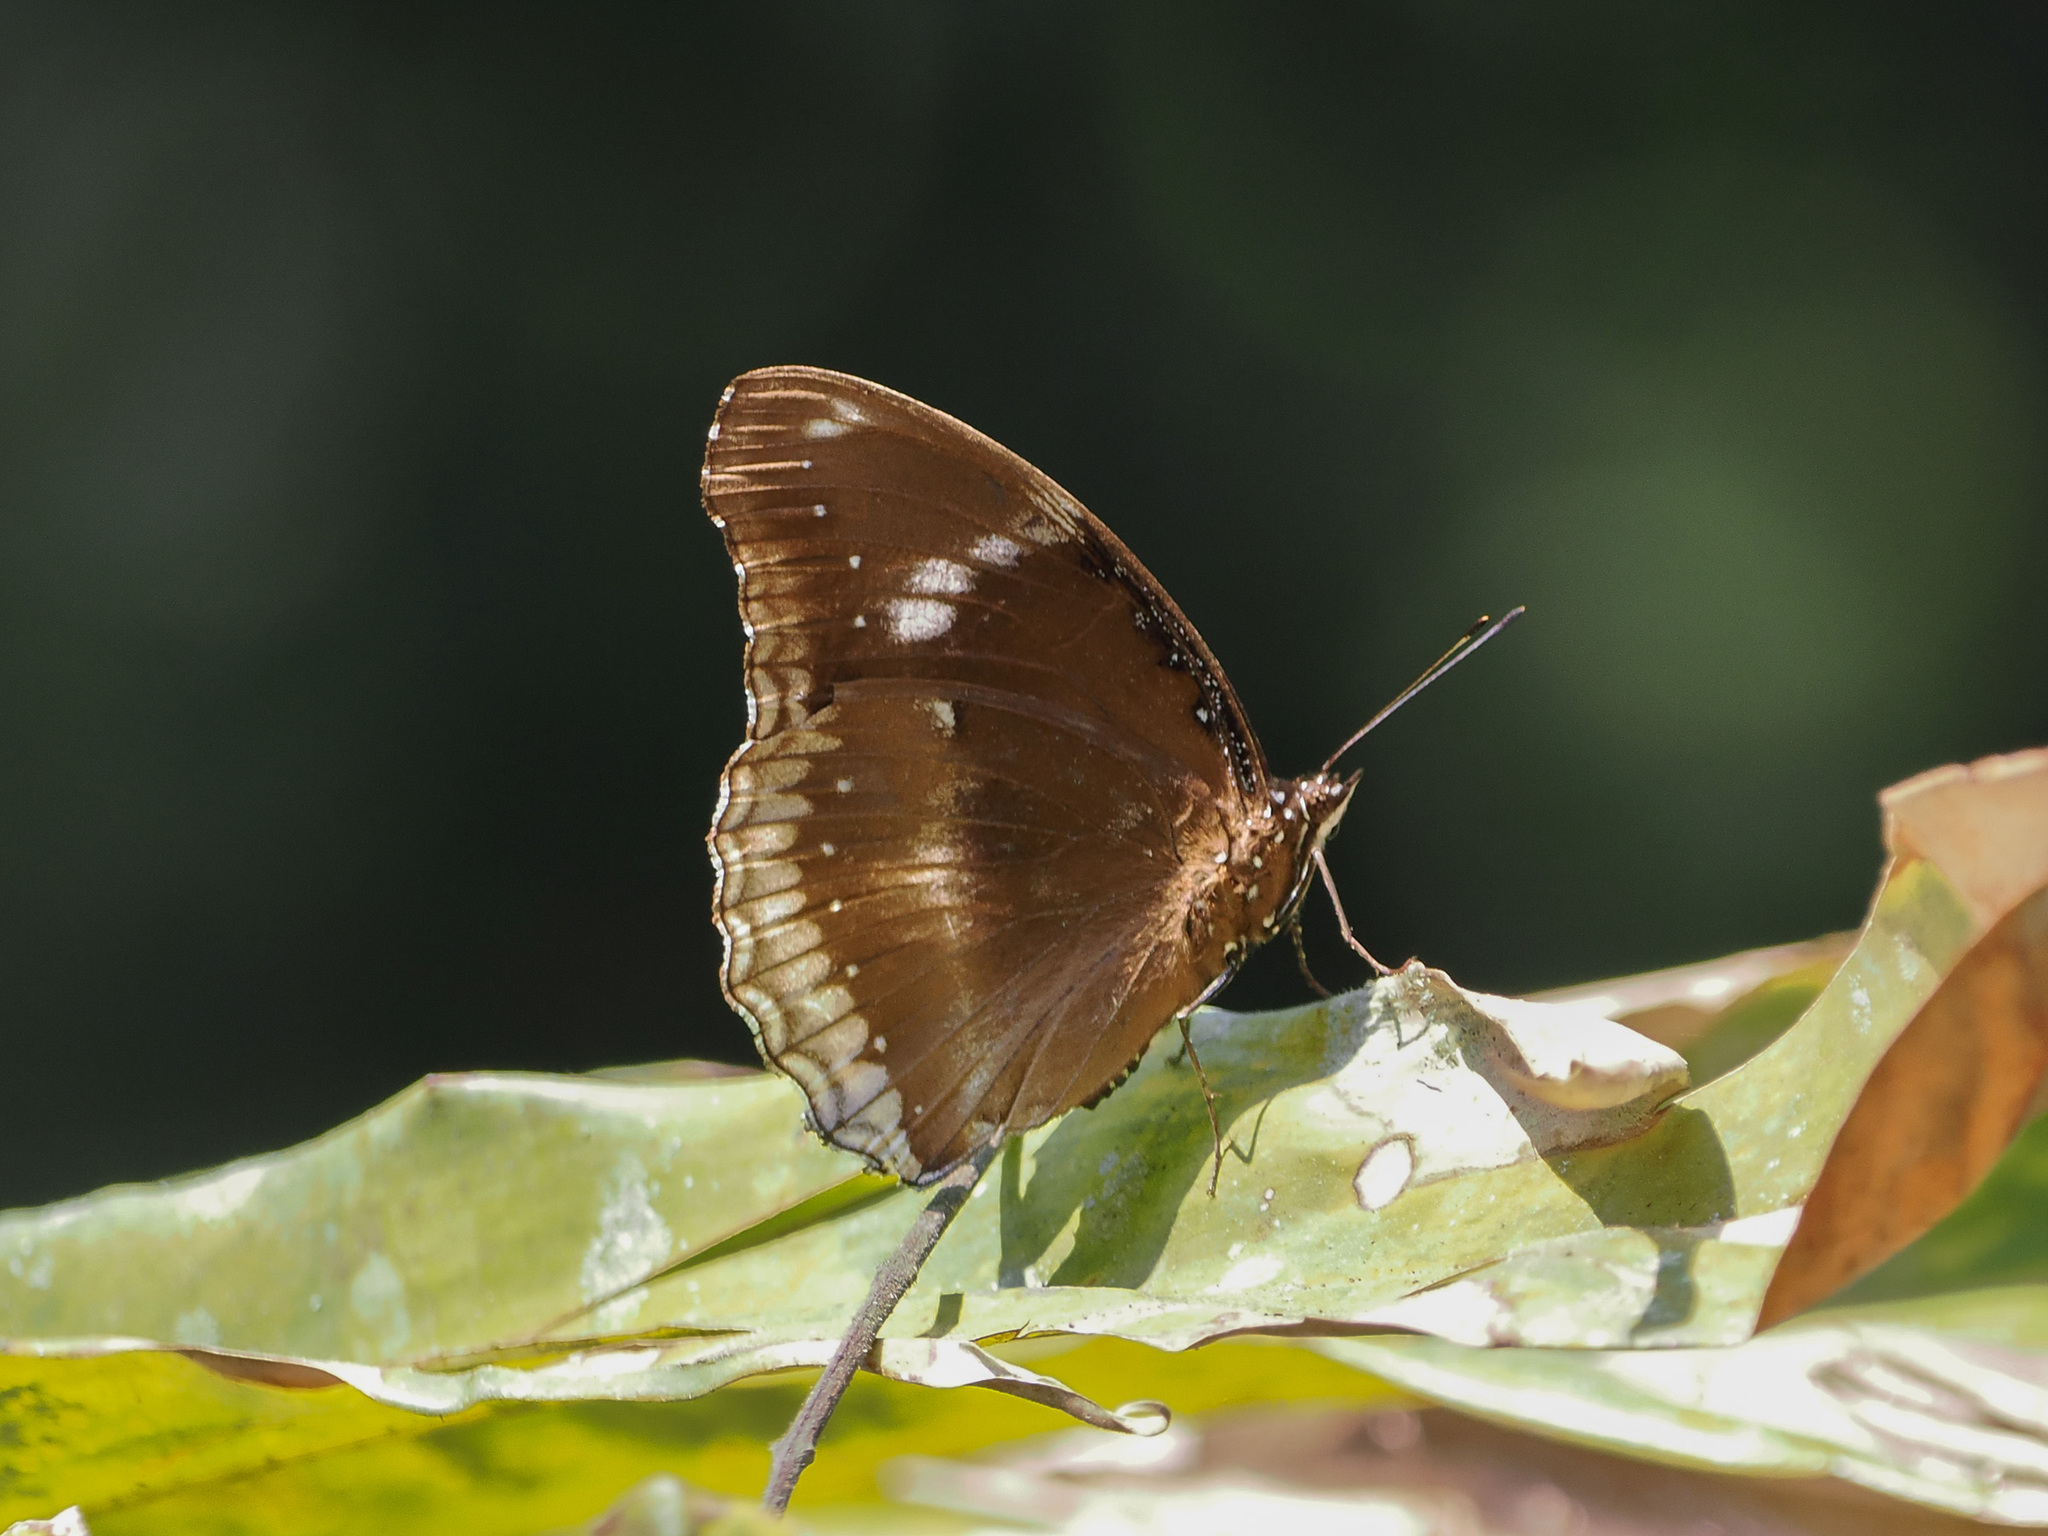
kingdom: Animalia
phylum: Arthropoda
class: Insecta
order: Lepidoptera
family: Nymphalidae
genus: Hypolimnas
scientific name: Hypolimnas bolina
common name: Great eggfly
